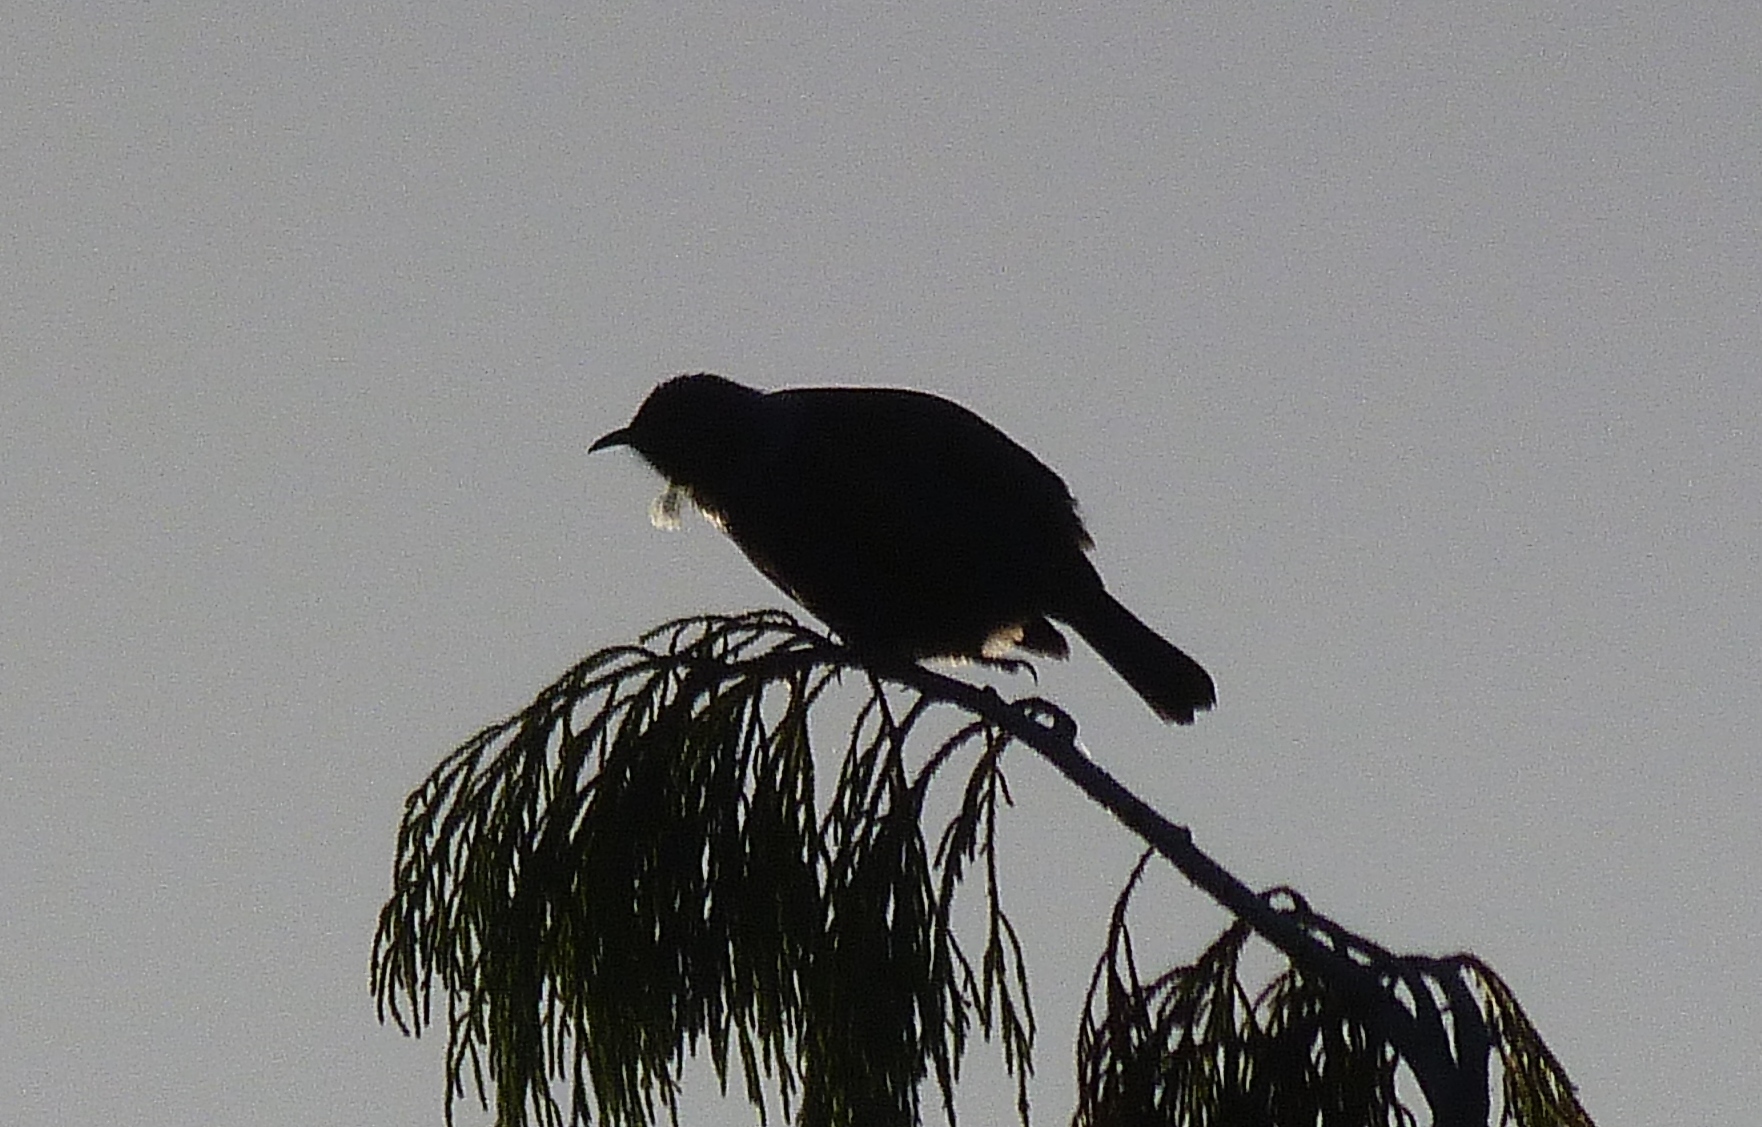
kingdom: Animalia
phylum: Chordata
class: Aves
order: Passeriformes
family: Meliphagidae
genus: Prosthemadera
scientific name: Prosthemadera novaeseelandiae
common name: Tui
